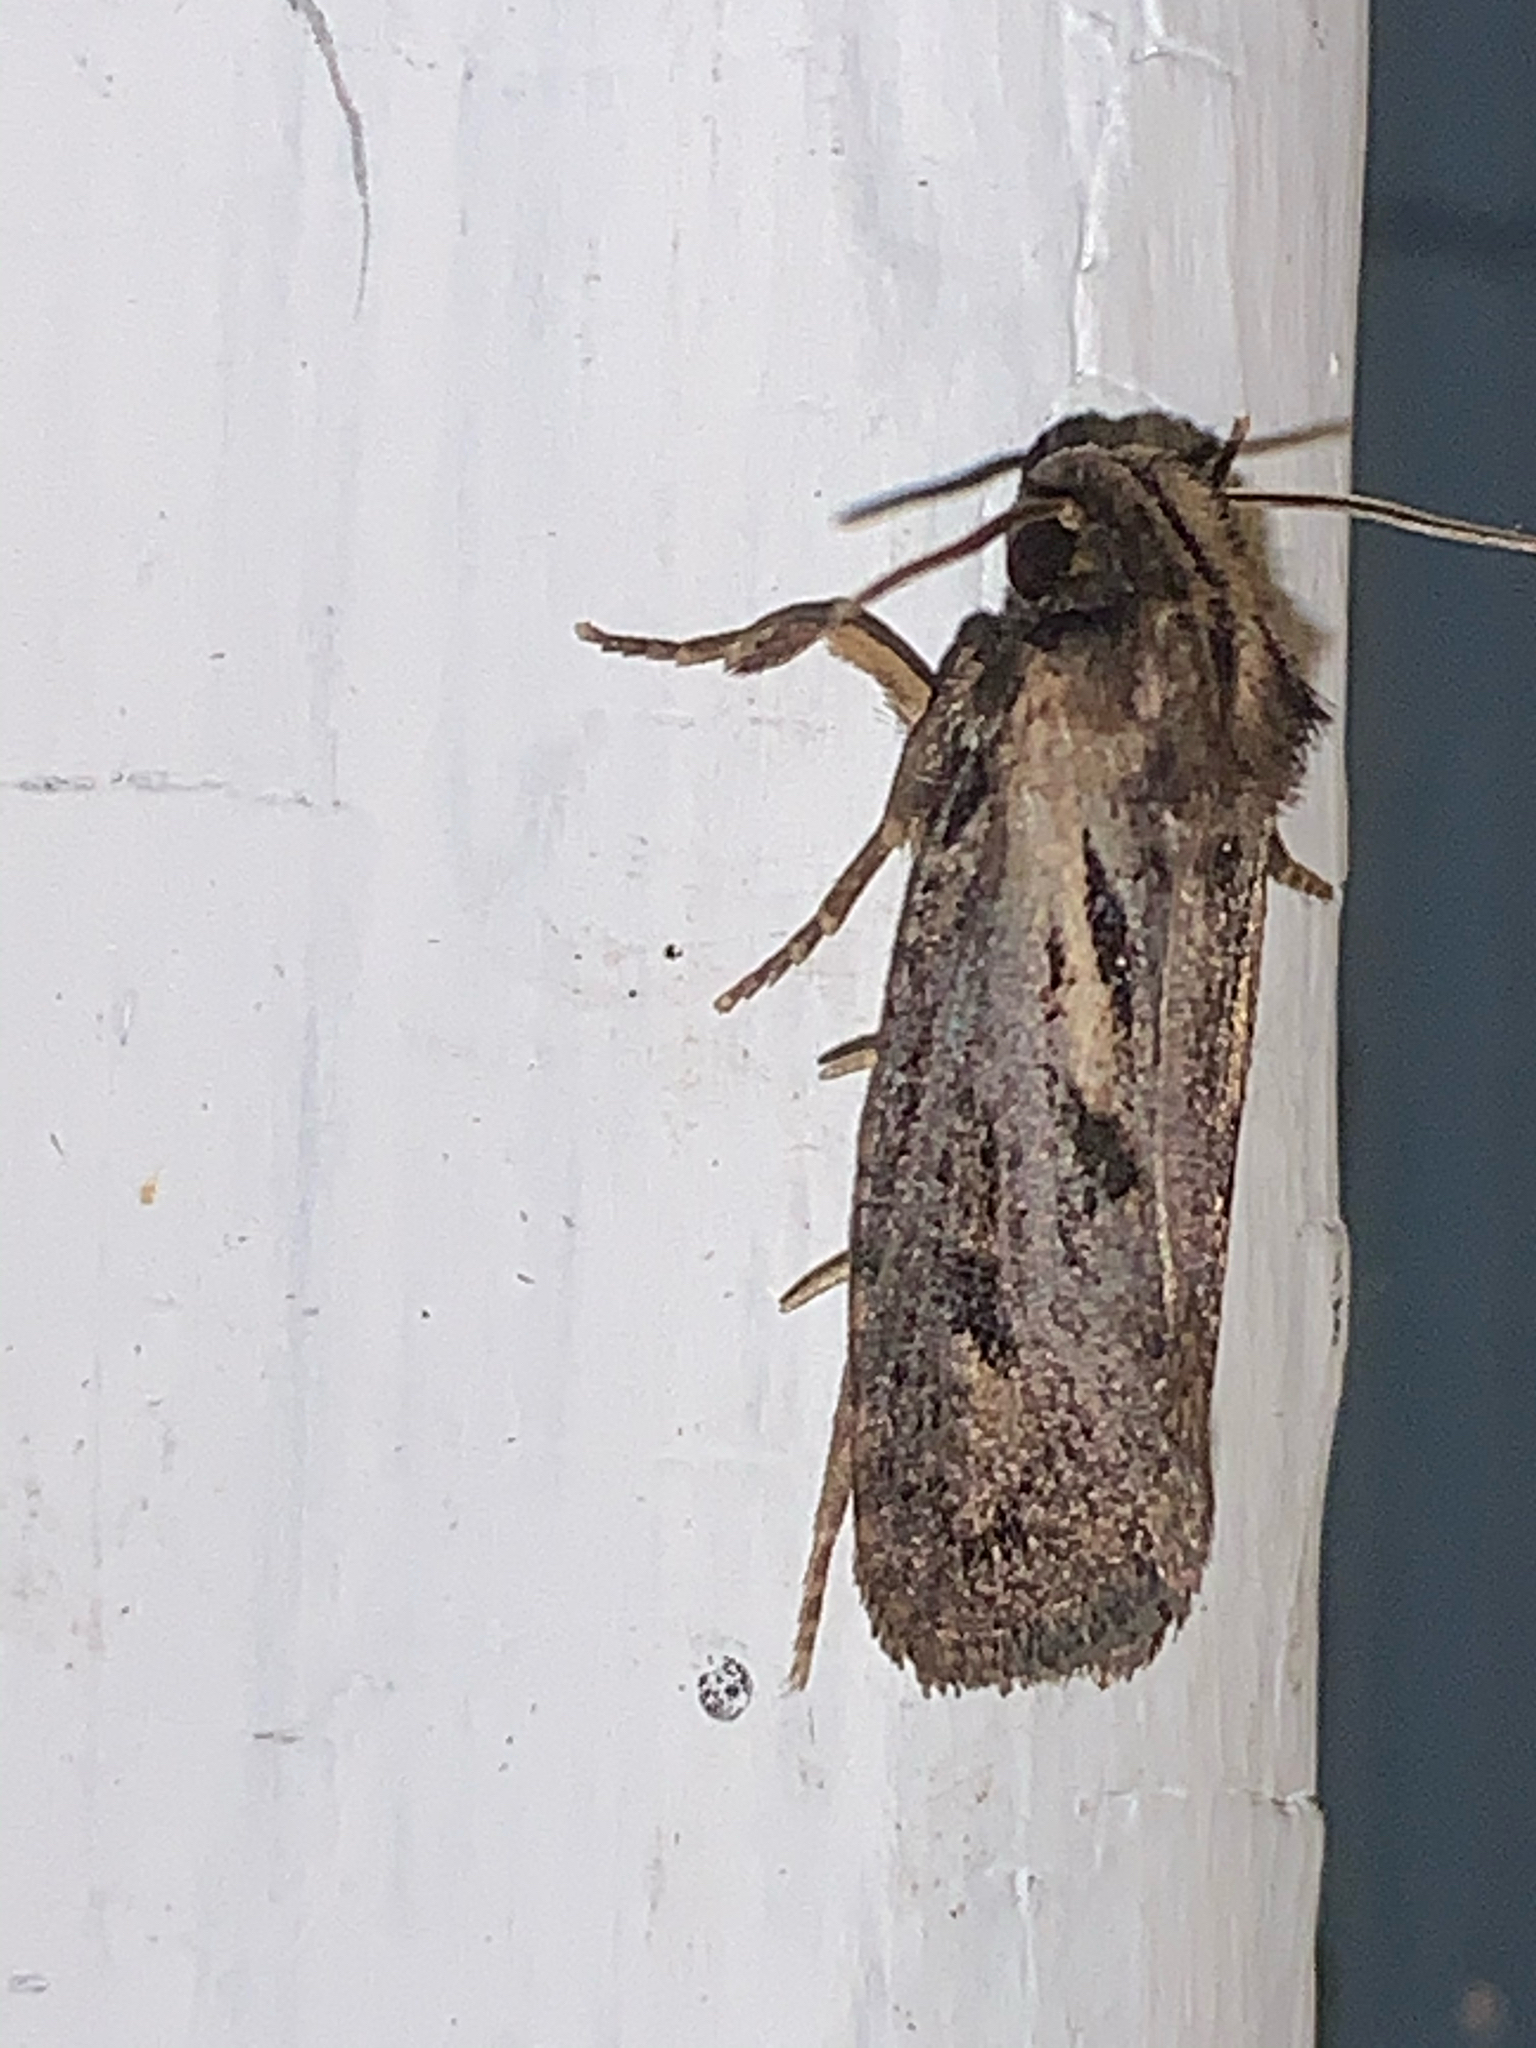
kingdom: Animalia
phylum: Arthropoda
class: Insecta
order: Lepidoptera
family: Tineidae
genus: Acrolophus
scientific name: Acrolophus popeanella
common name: Clemens' grass tubeworm moth
